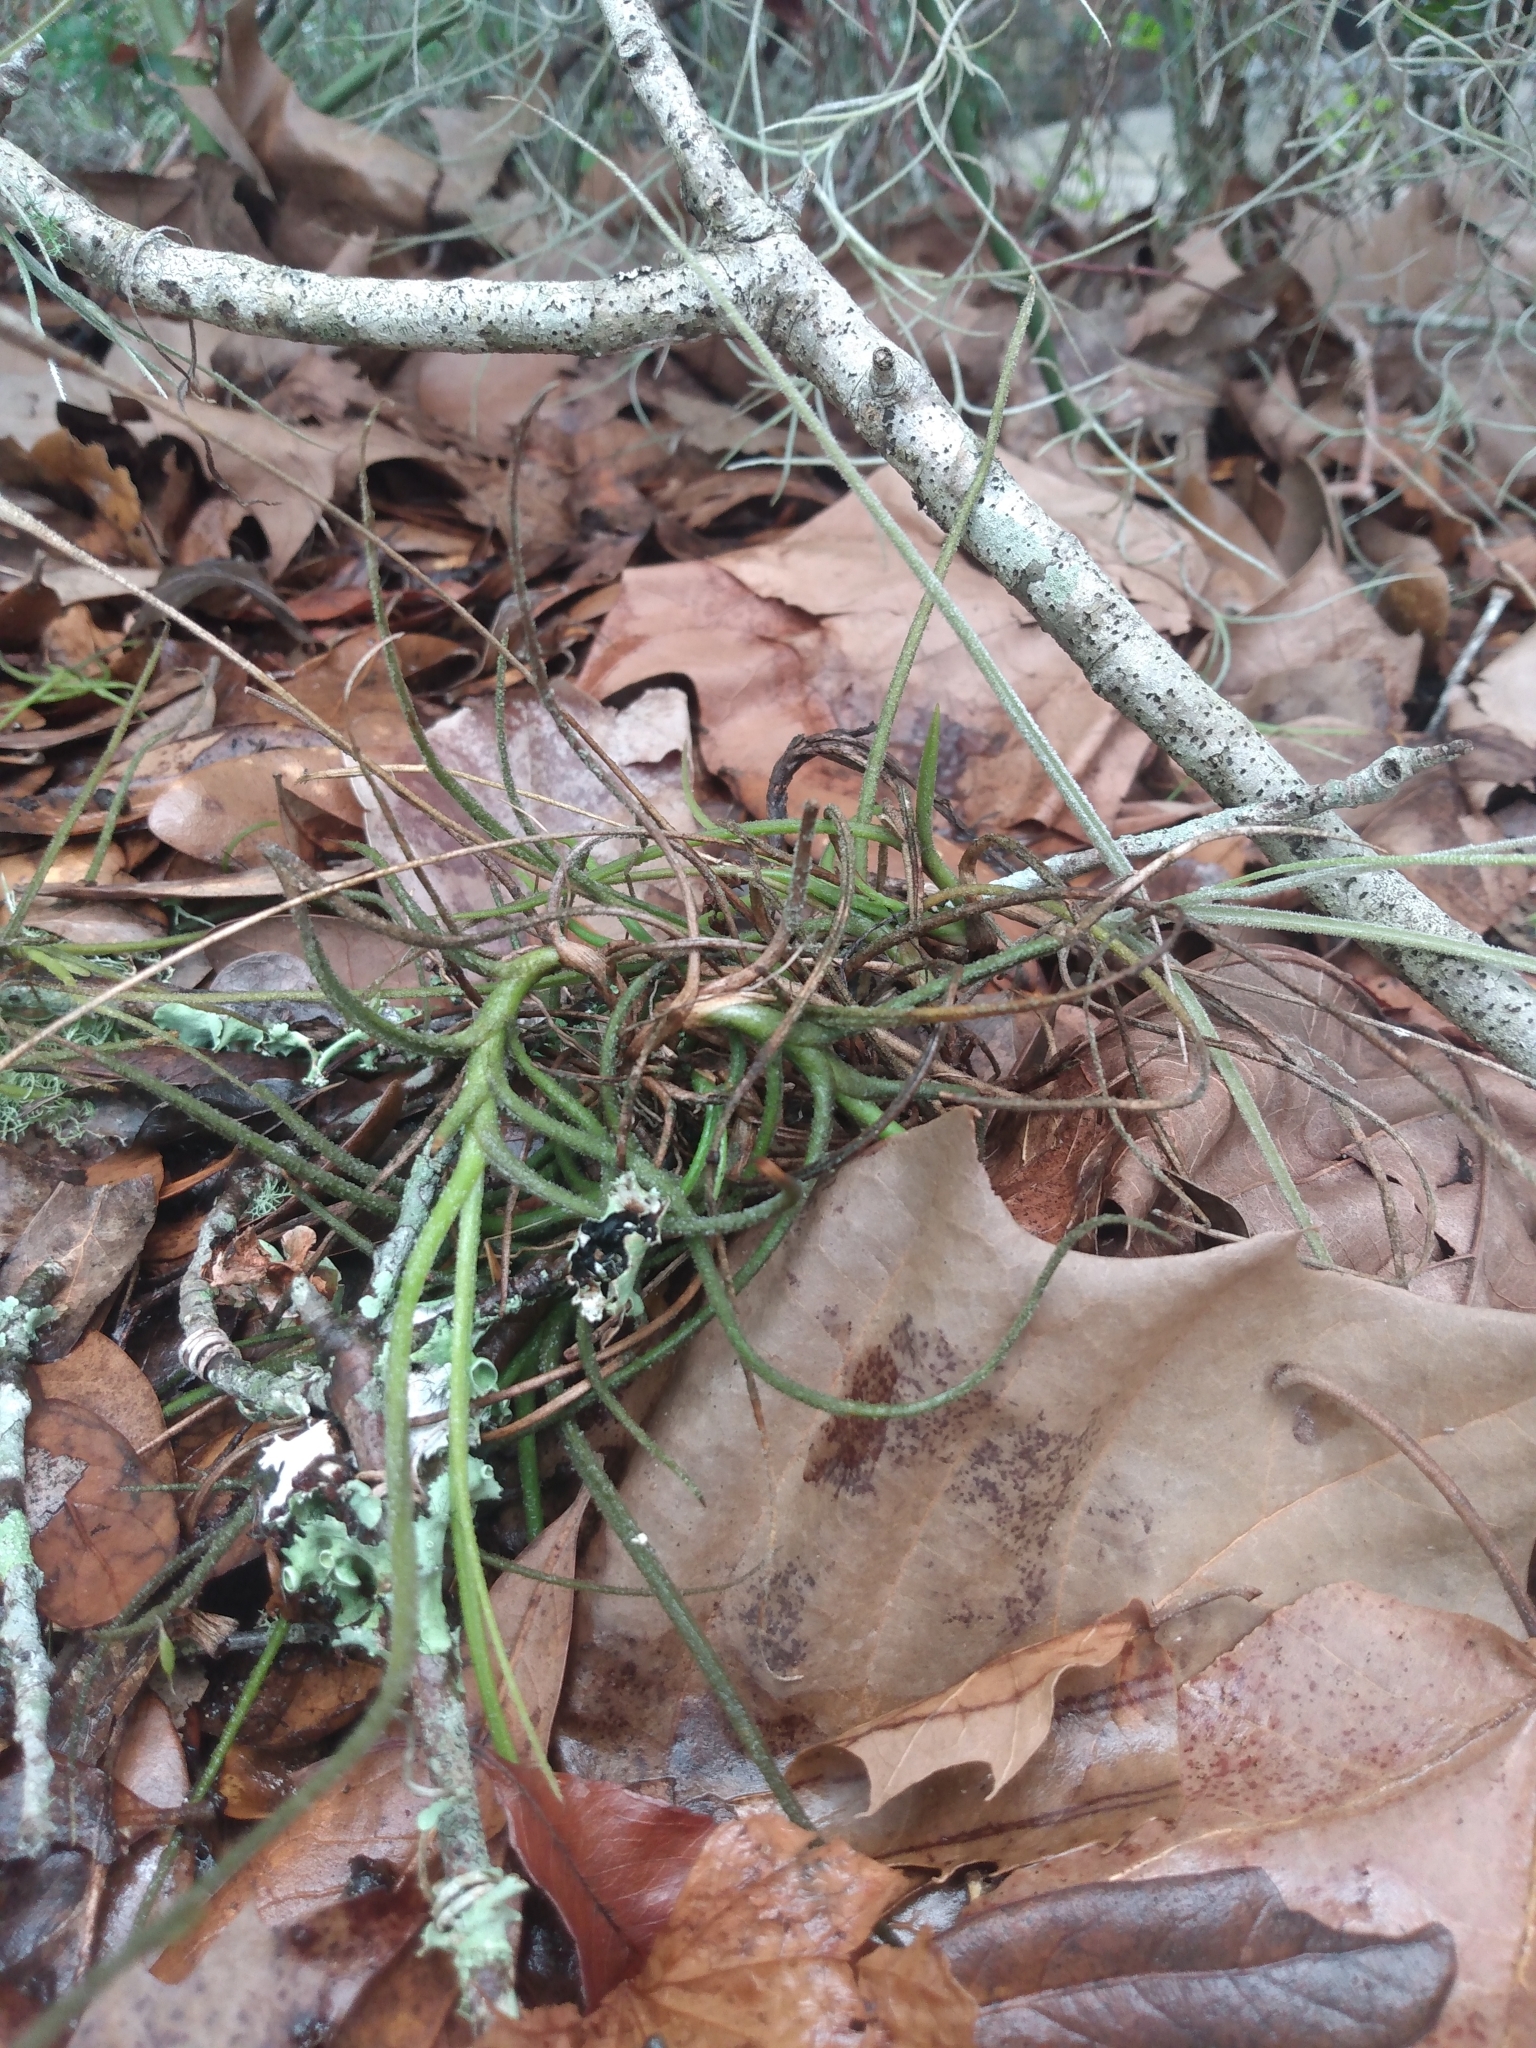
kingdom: Plantae
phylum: Tracheophyta
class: Liliopsida
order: Poales
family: Bromeliaceae
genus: Tillandsia
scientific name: Tillandsia recurvata
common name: Small ballmoss
